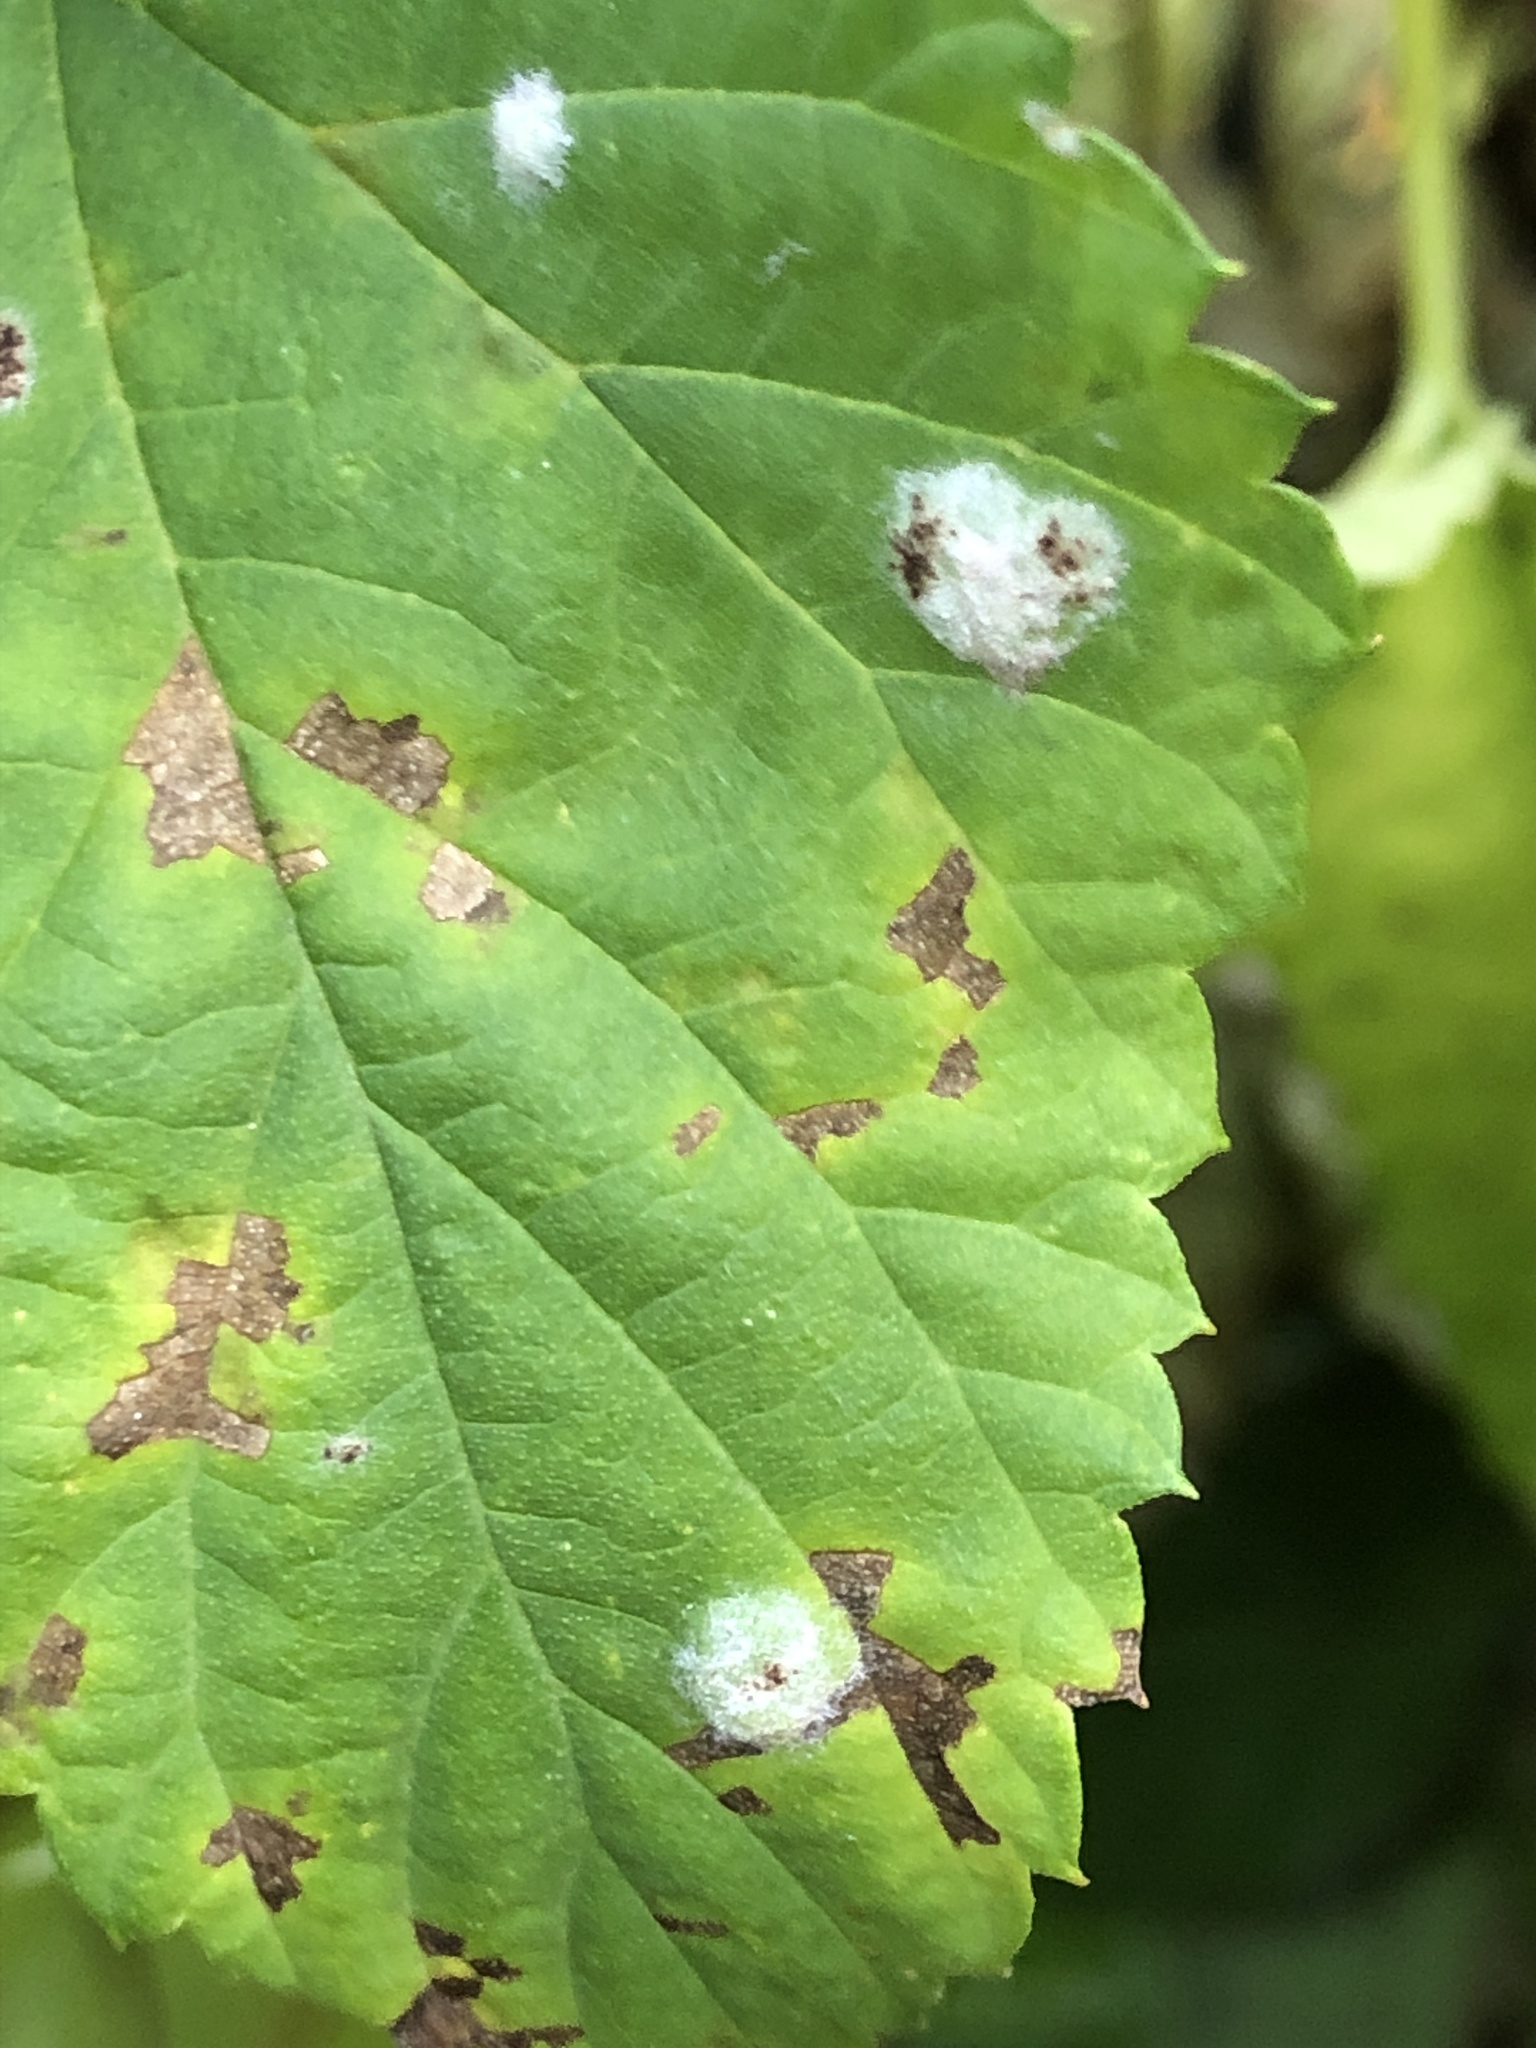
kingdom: Fungi
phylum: Ascomycota
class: Leotiomycetes
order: Helotiales
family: Erysiphaceae
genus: Podosphaera
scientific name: Podosphaera macularis
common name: Powdery mildew
